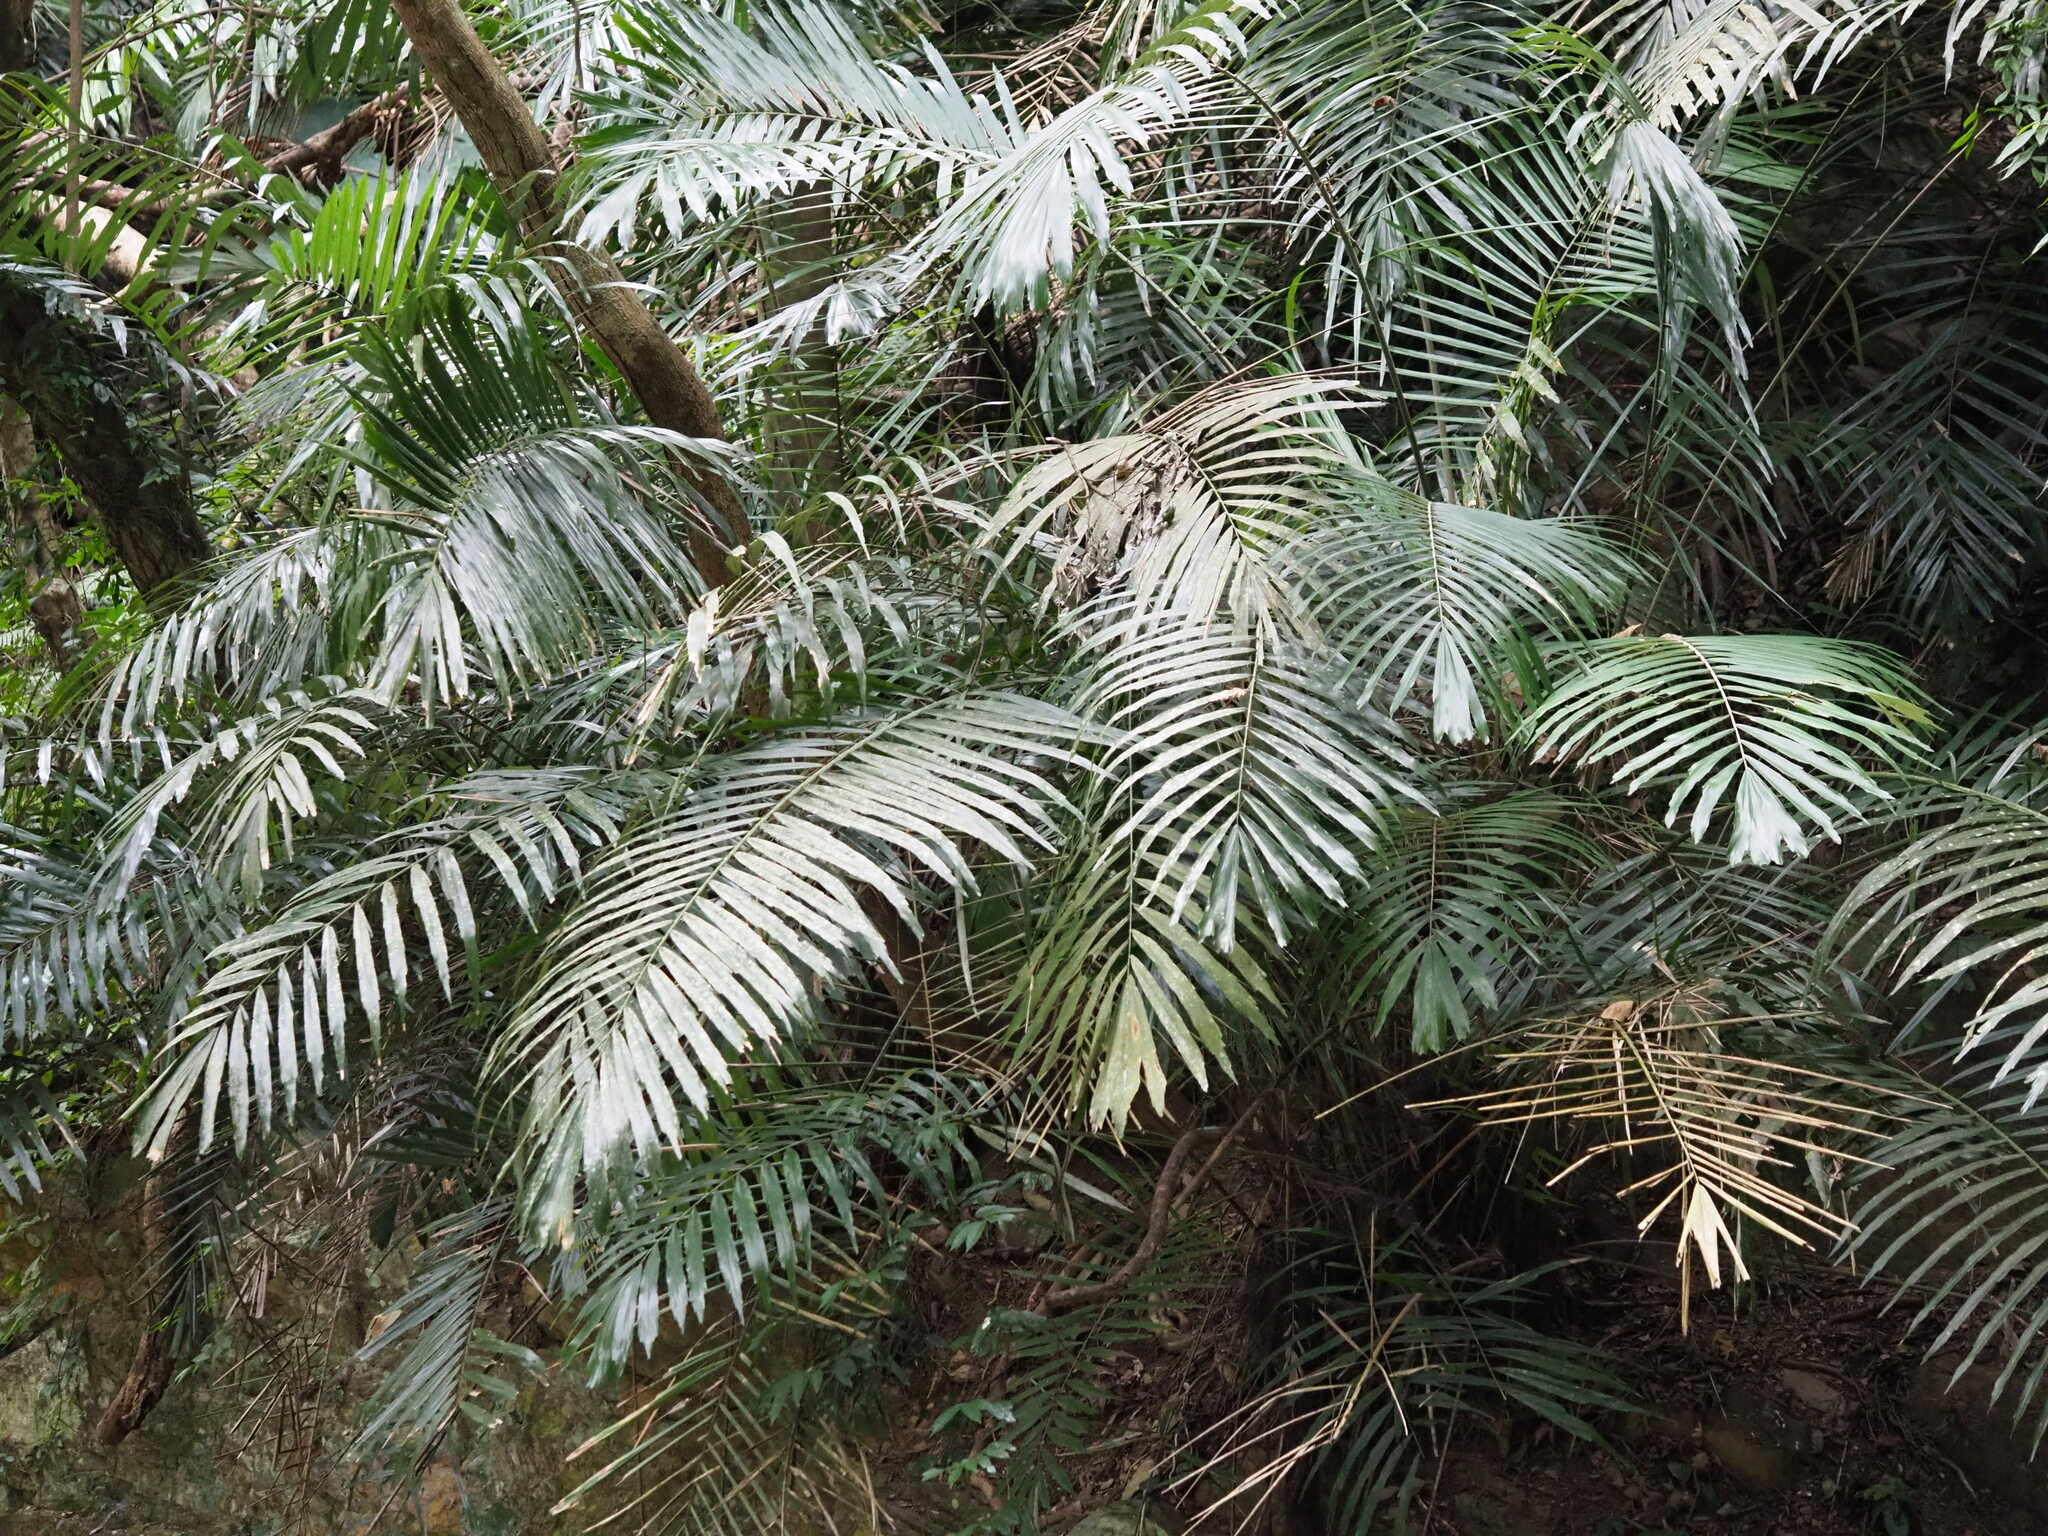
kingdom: Plantae
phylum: Tracheophyta
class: Liliopsida
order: Arecales
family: Arecaceae
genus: Arenga
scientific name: Arenga engleri
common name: Formosan sugar palm
